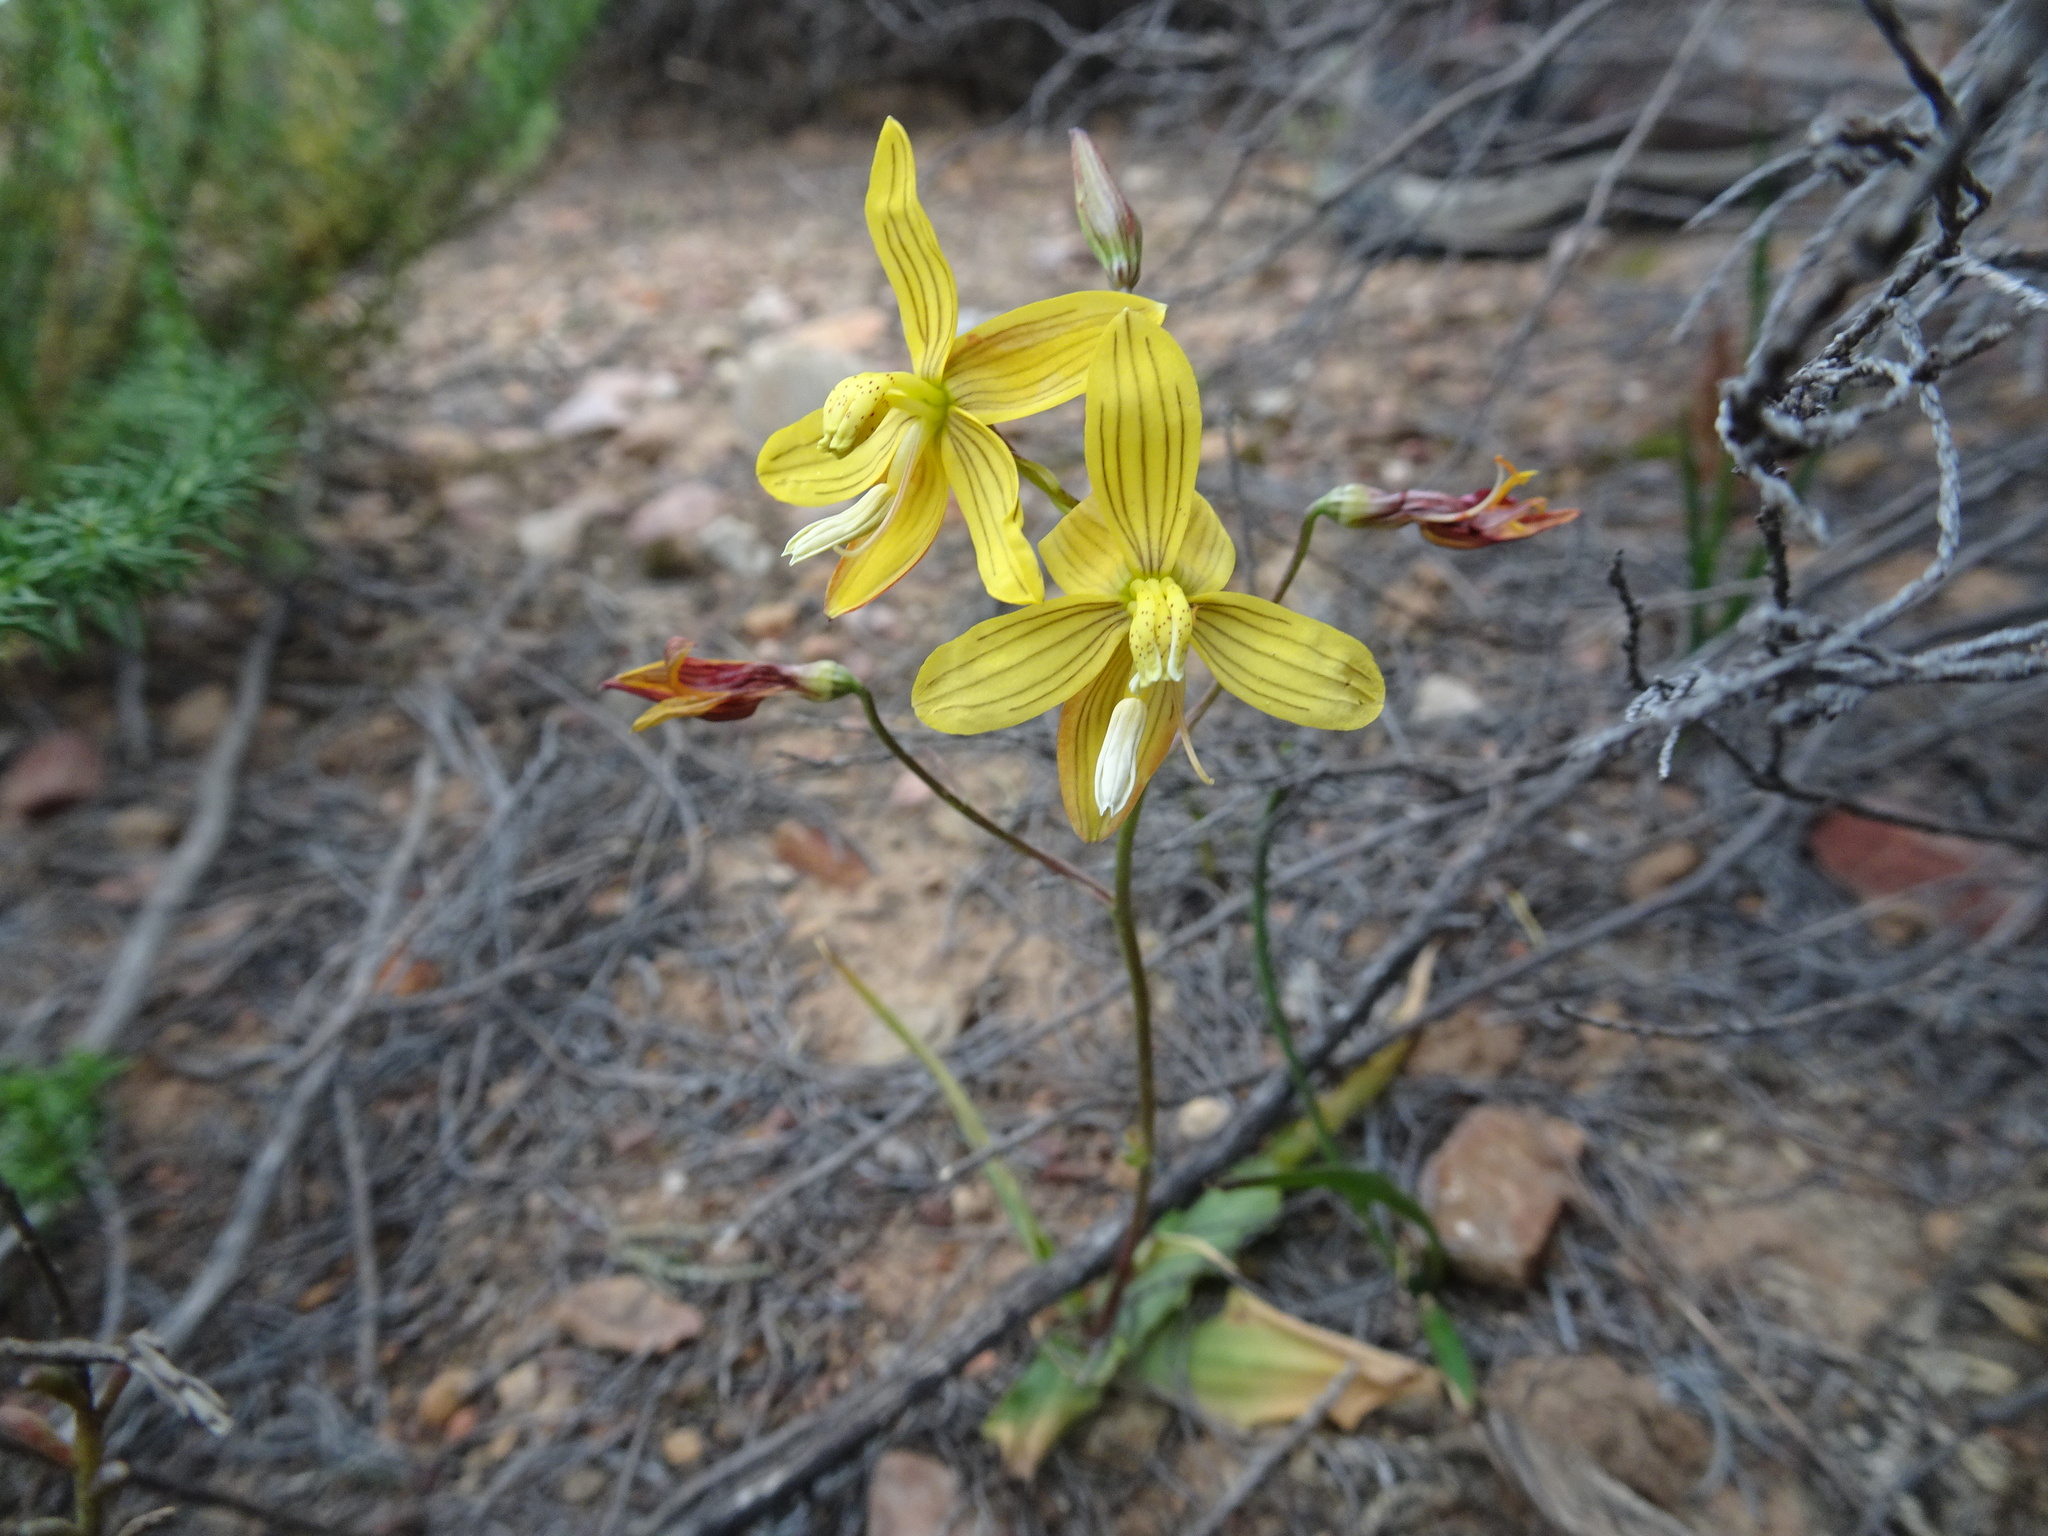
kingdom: Plantae
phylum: Tracheophyta
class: Liliopsida
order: Asparagales
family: Tecophilaeaceae
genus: Cyanella
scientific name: Cyanella lutea
